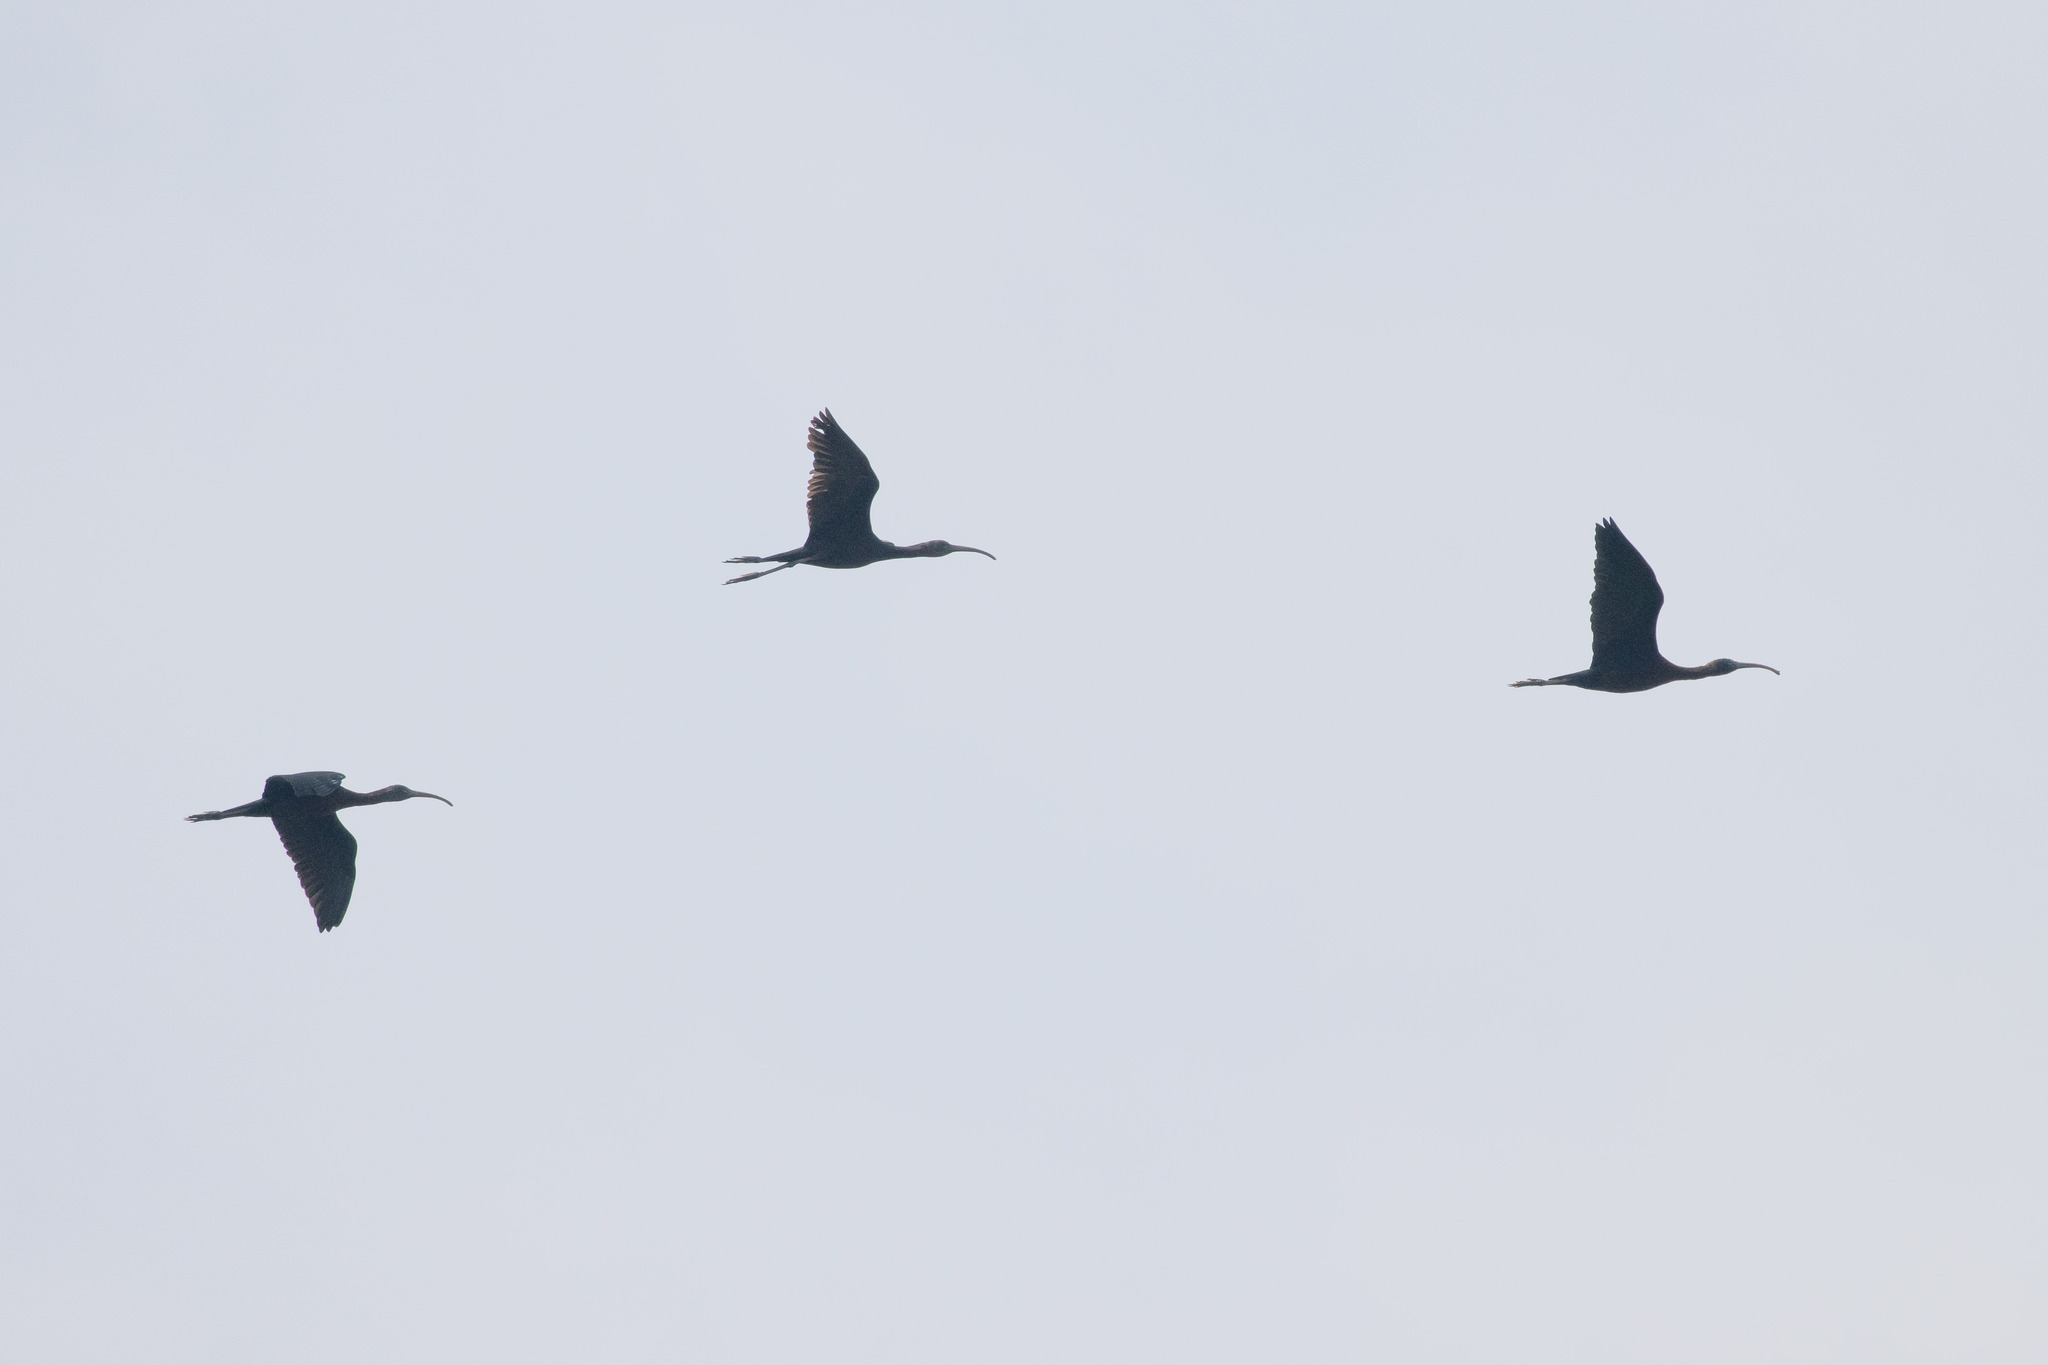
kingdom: Animalia
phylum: Chordata
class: Aves
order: Pelecaniformes
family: Threskiornithidae
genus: Plegadis
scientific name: Plegadis falcinellus
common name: Glossy ibis
